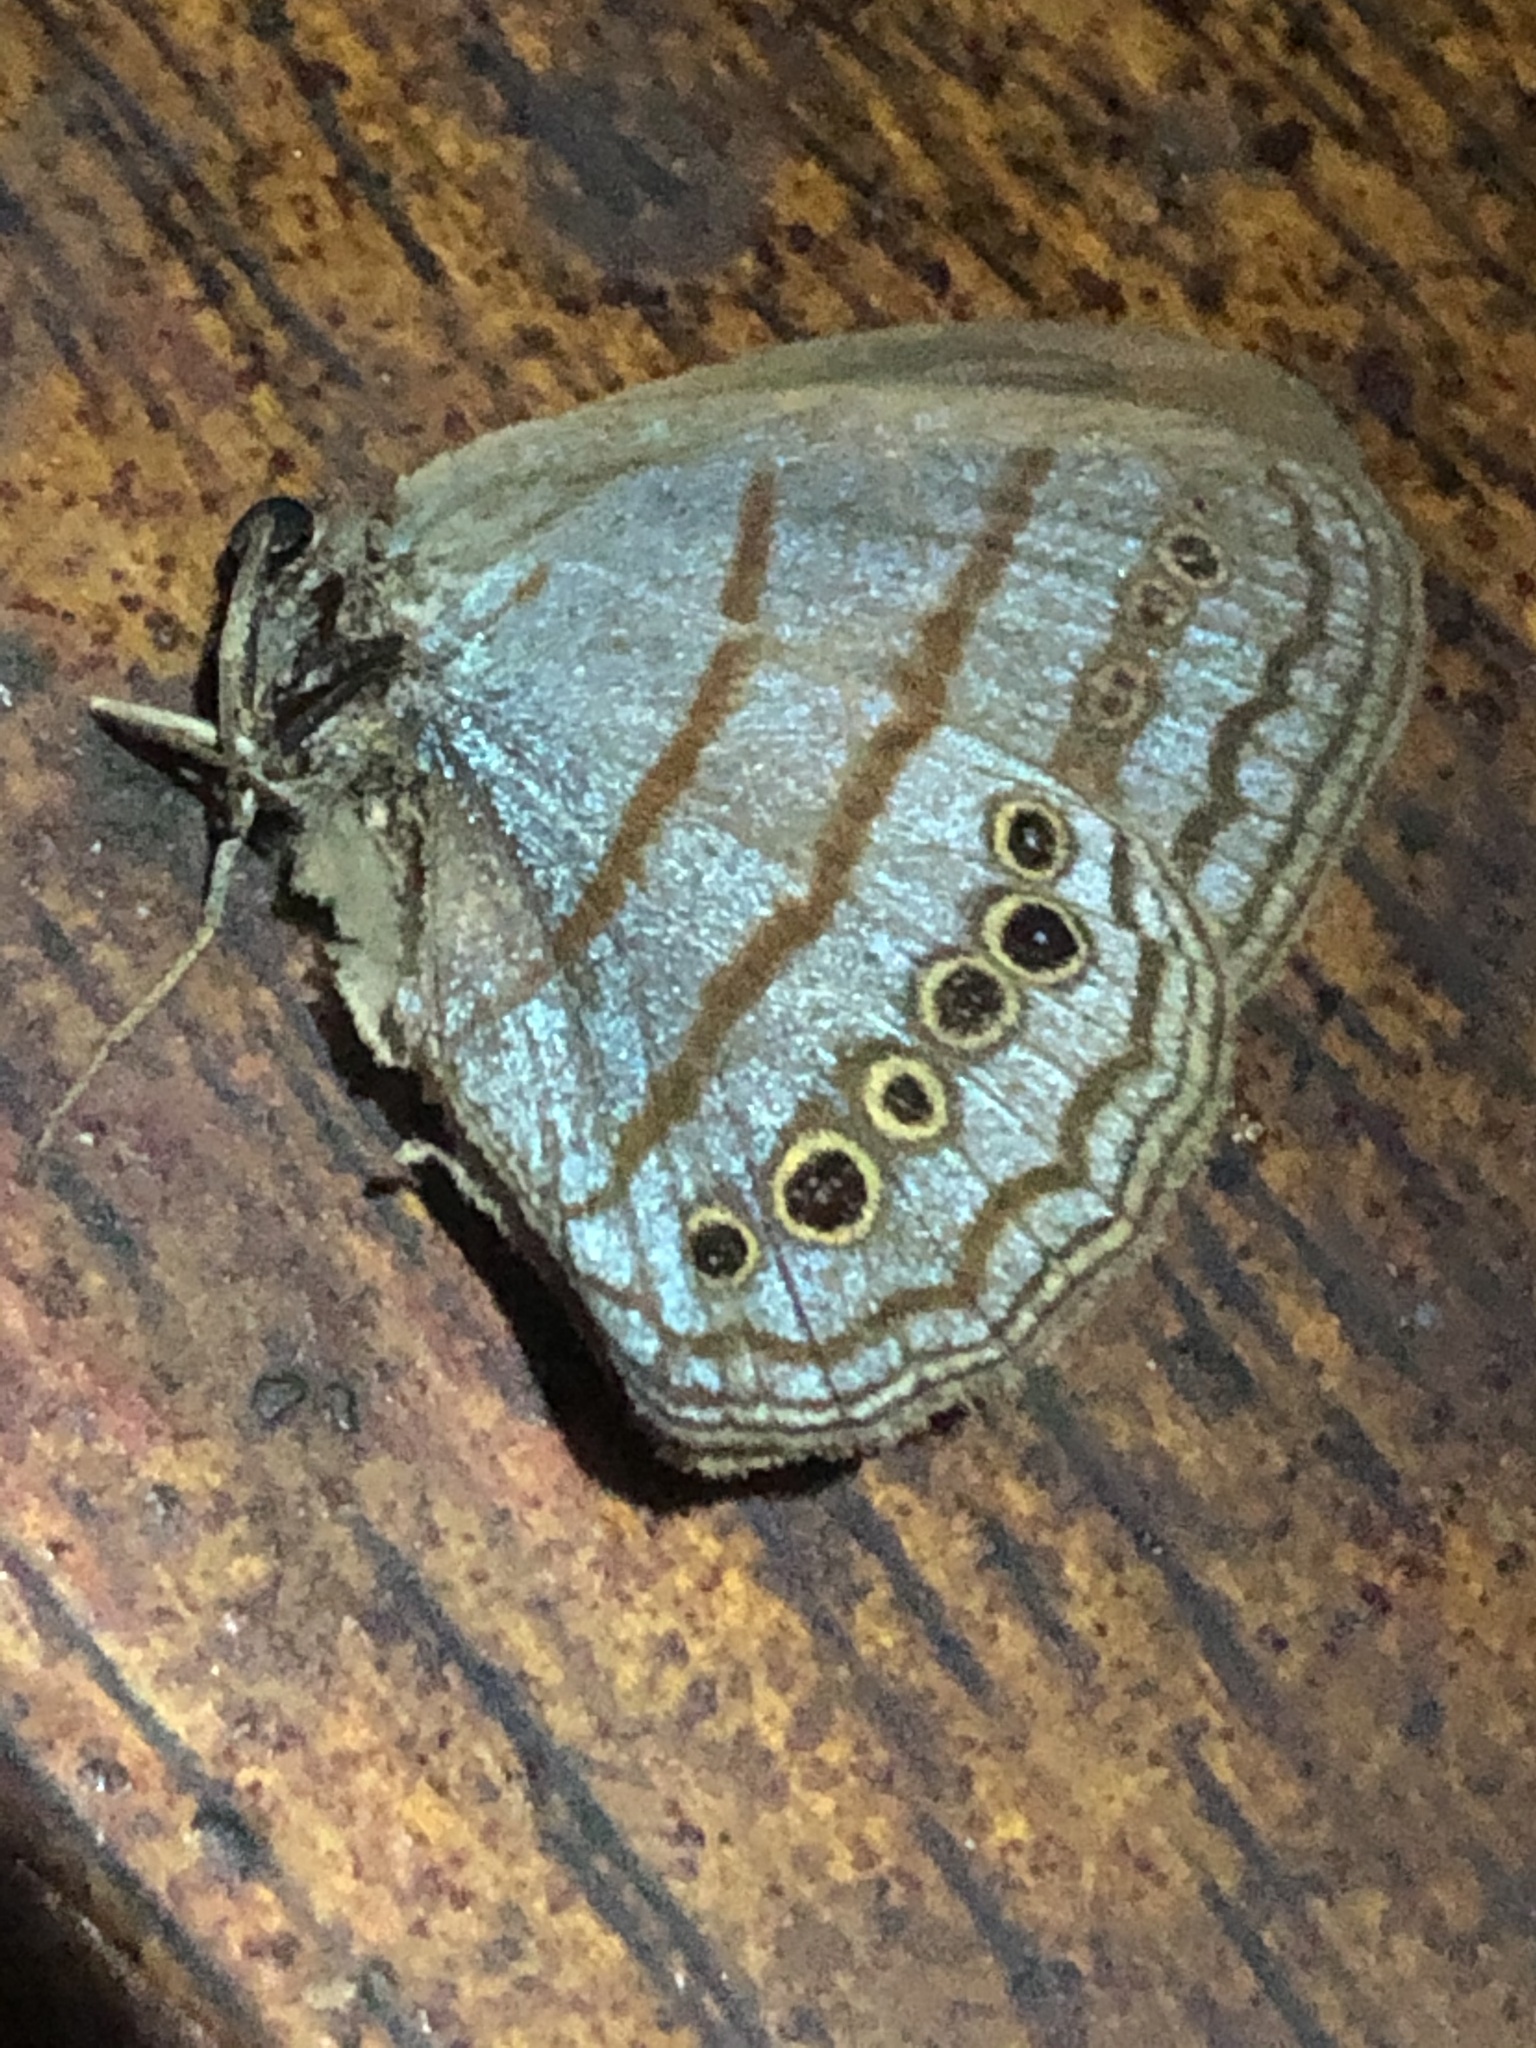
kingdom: Animalia
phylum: Arthropoda
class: Insecta
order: Lepidoptera
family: Nymphalidae
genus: Caeruleuptychia
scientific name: Caeruleuptychia twalela
